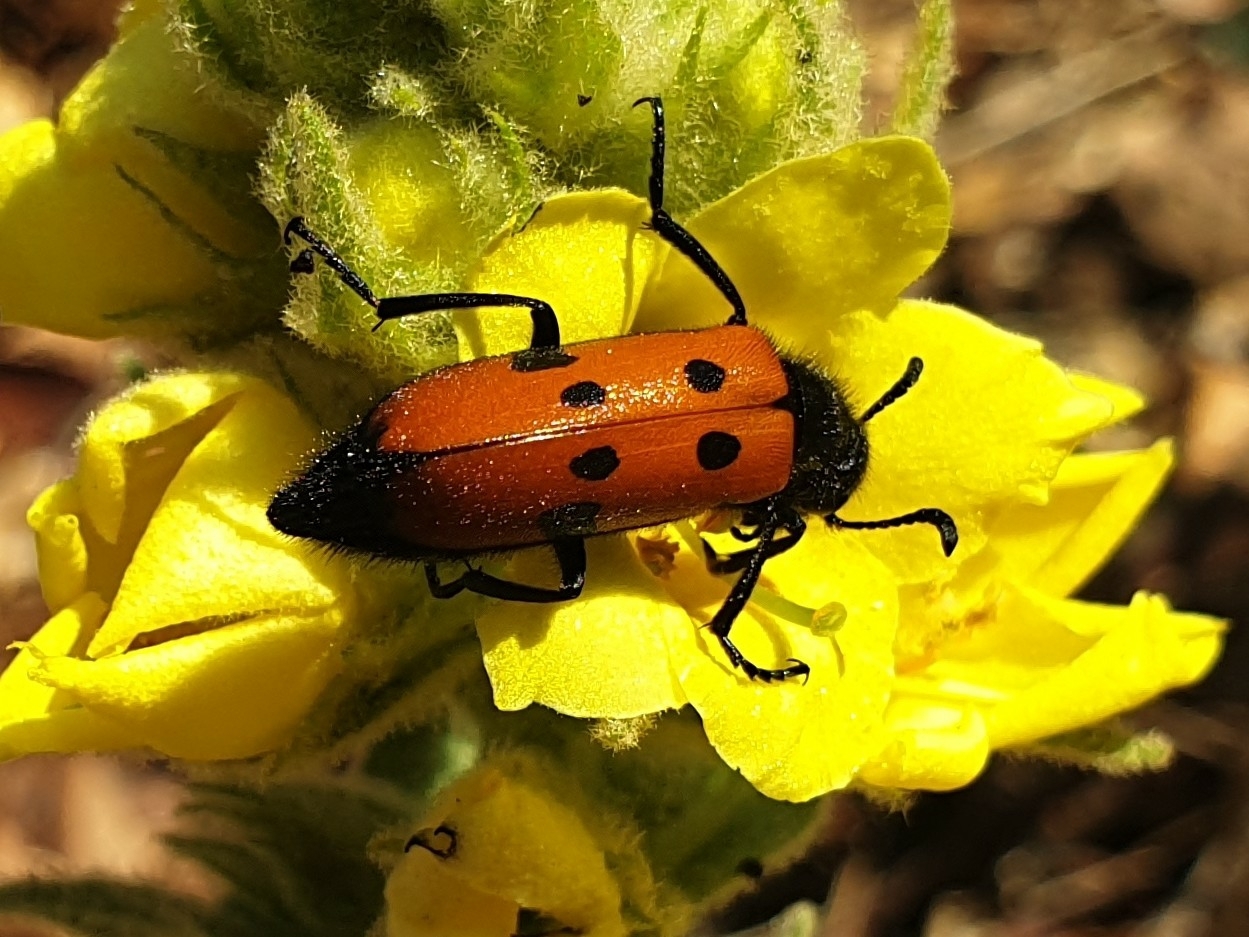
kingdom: Animalia
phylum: Arthropoda
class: Insecta
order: Coleoptera
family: Meloidae
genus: Mylabris
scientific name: Mylabris quadripunctata
